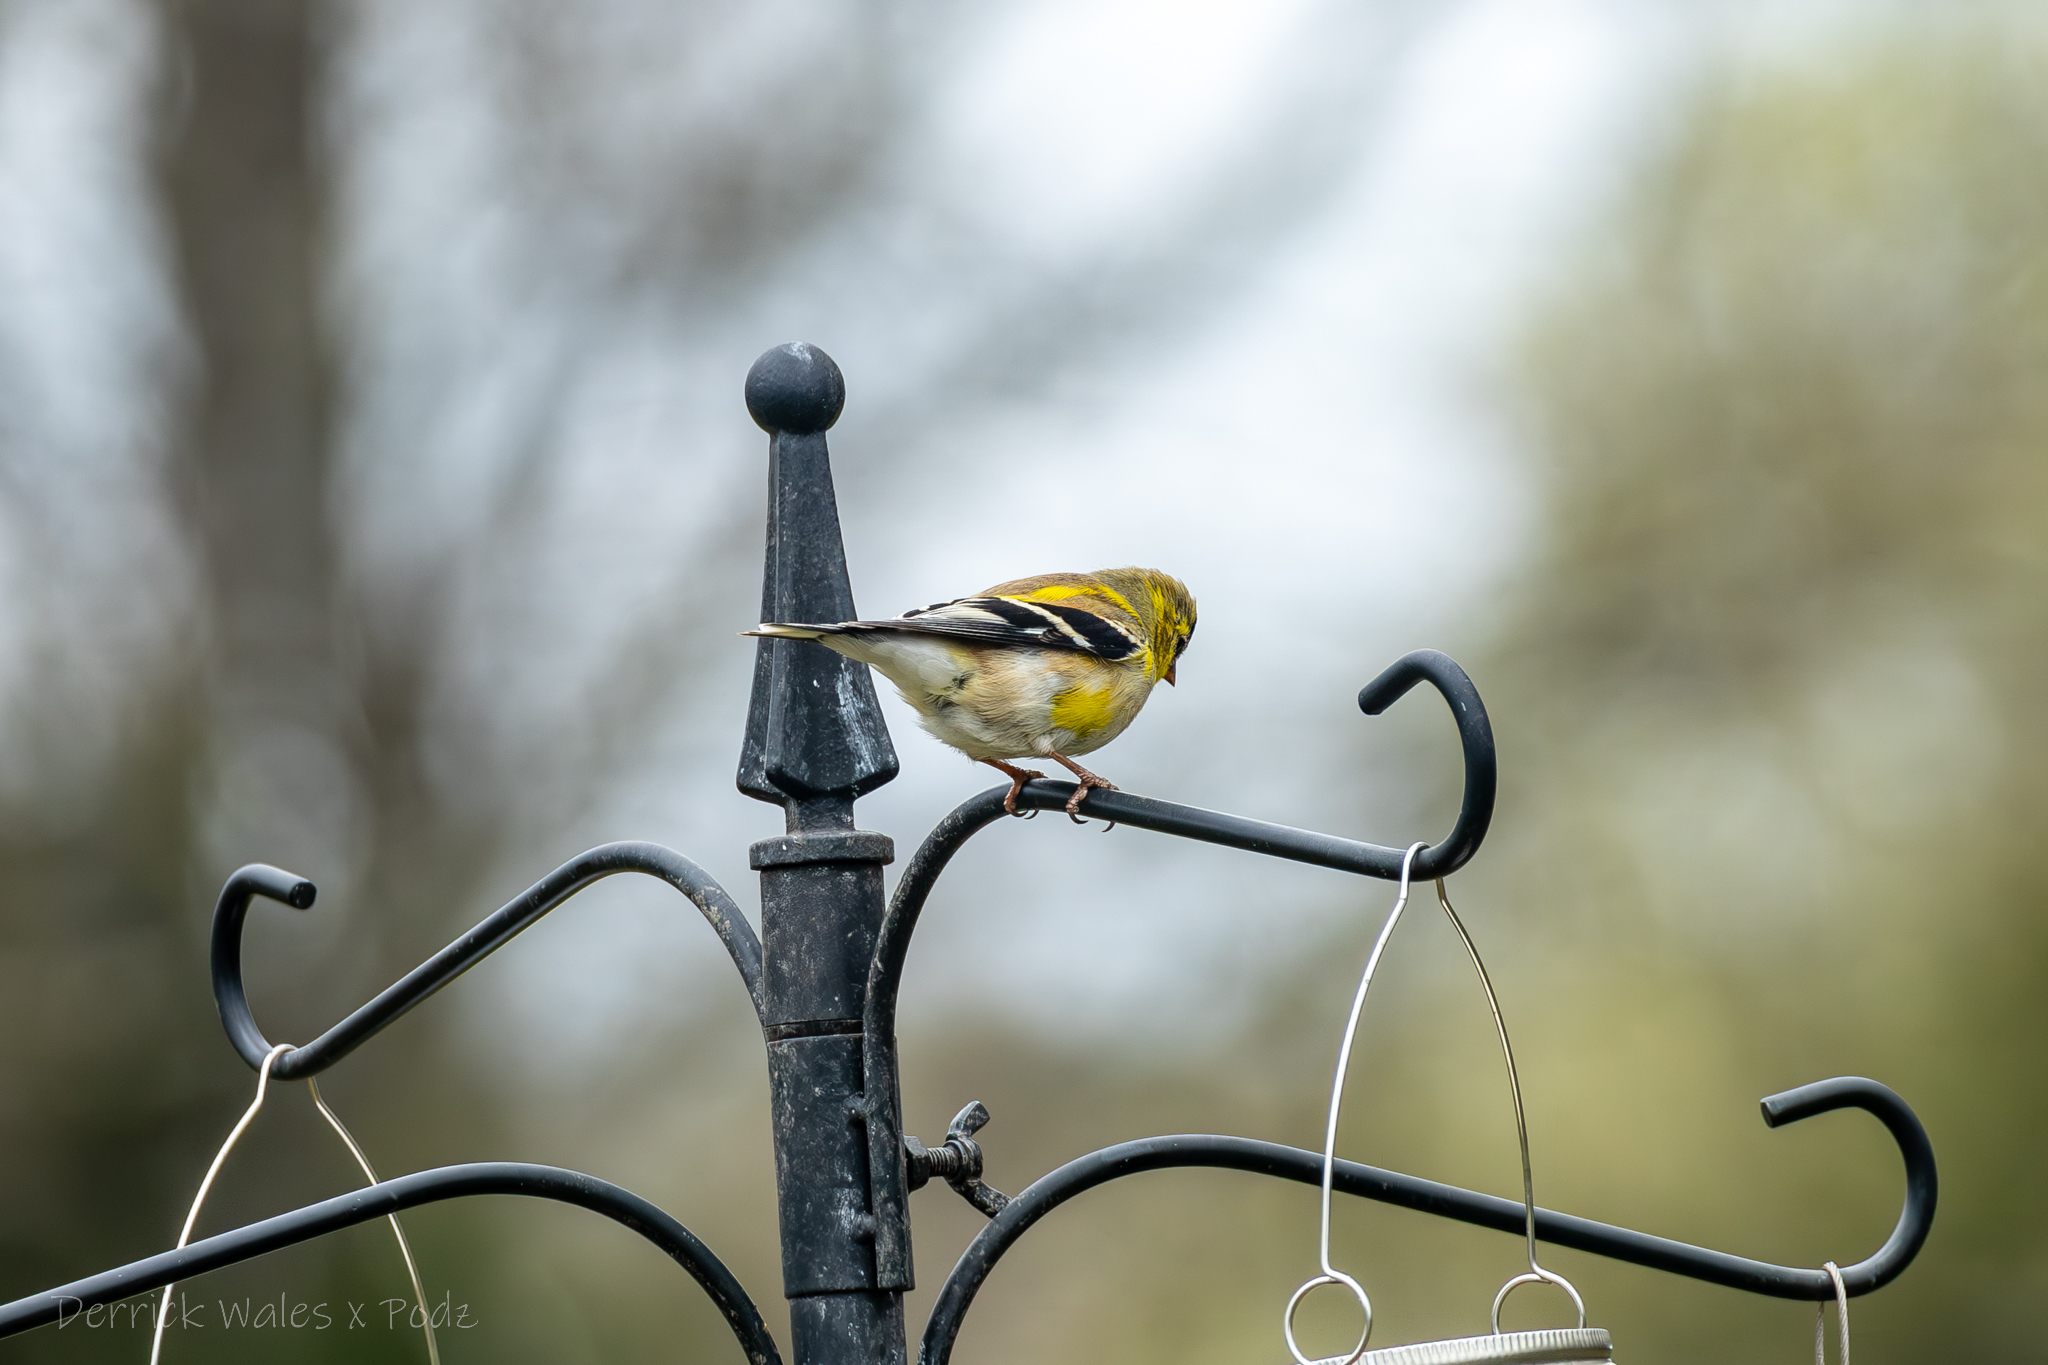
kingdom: Animalia
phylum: Chordata
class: Aves
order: Passeriformes
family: Fringillidae
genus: Spinus
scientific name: Spinus tristis
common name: American goldfinch
